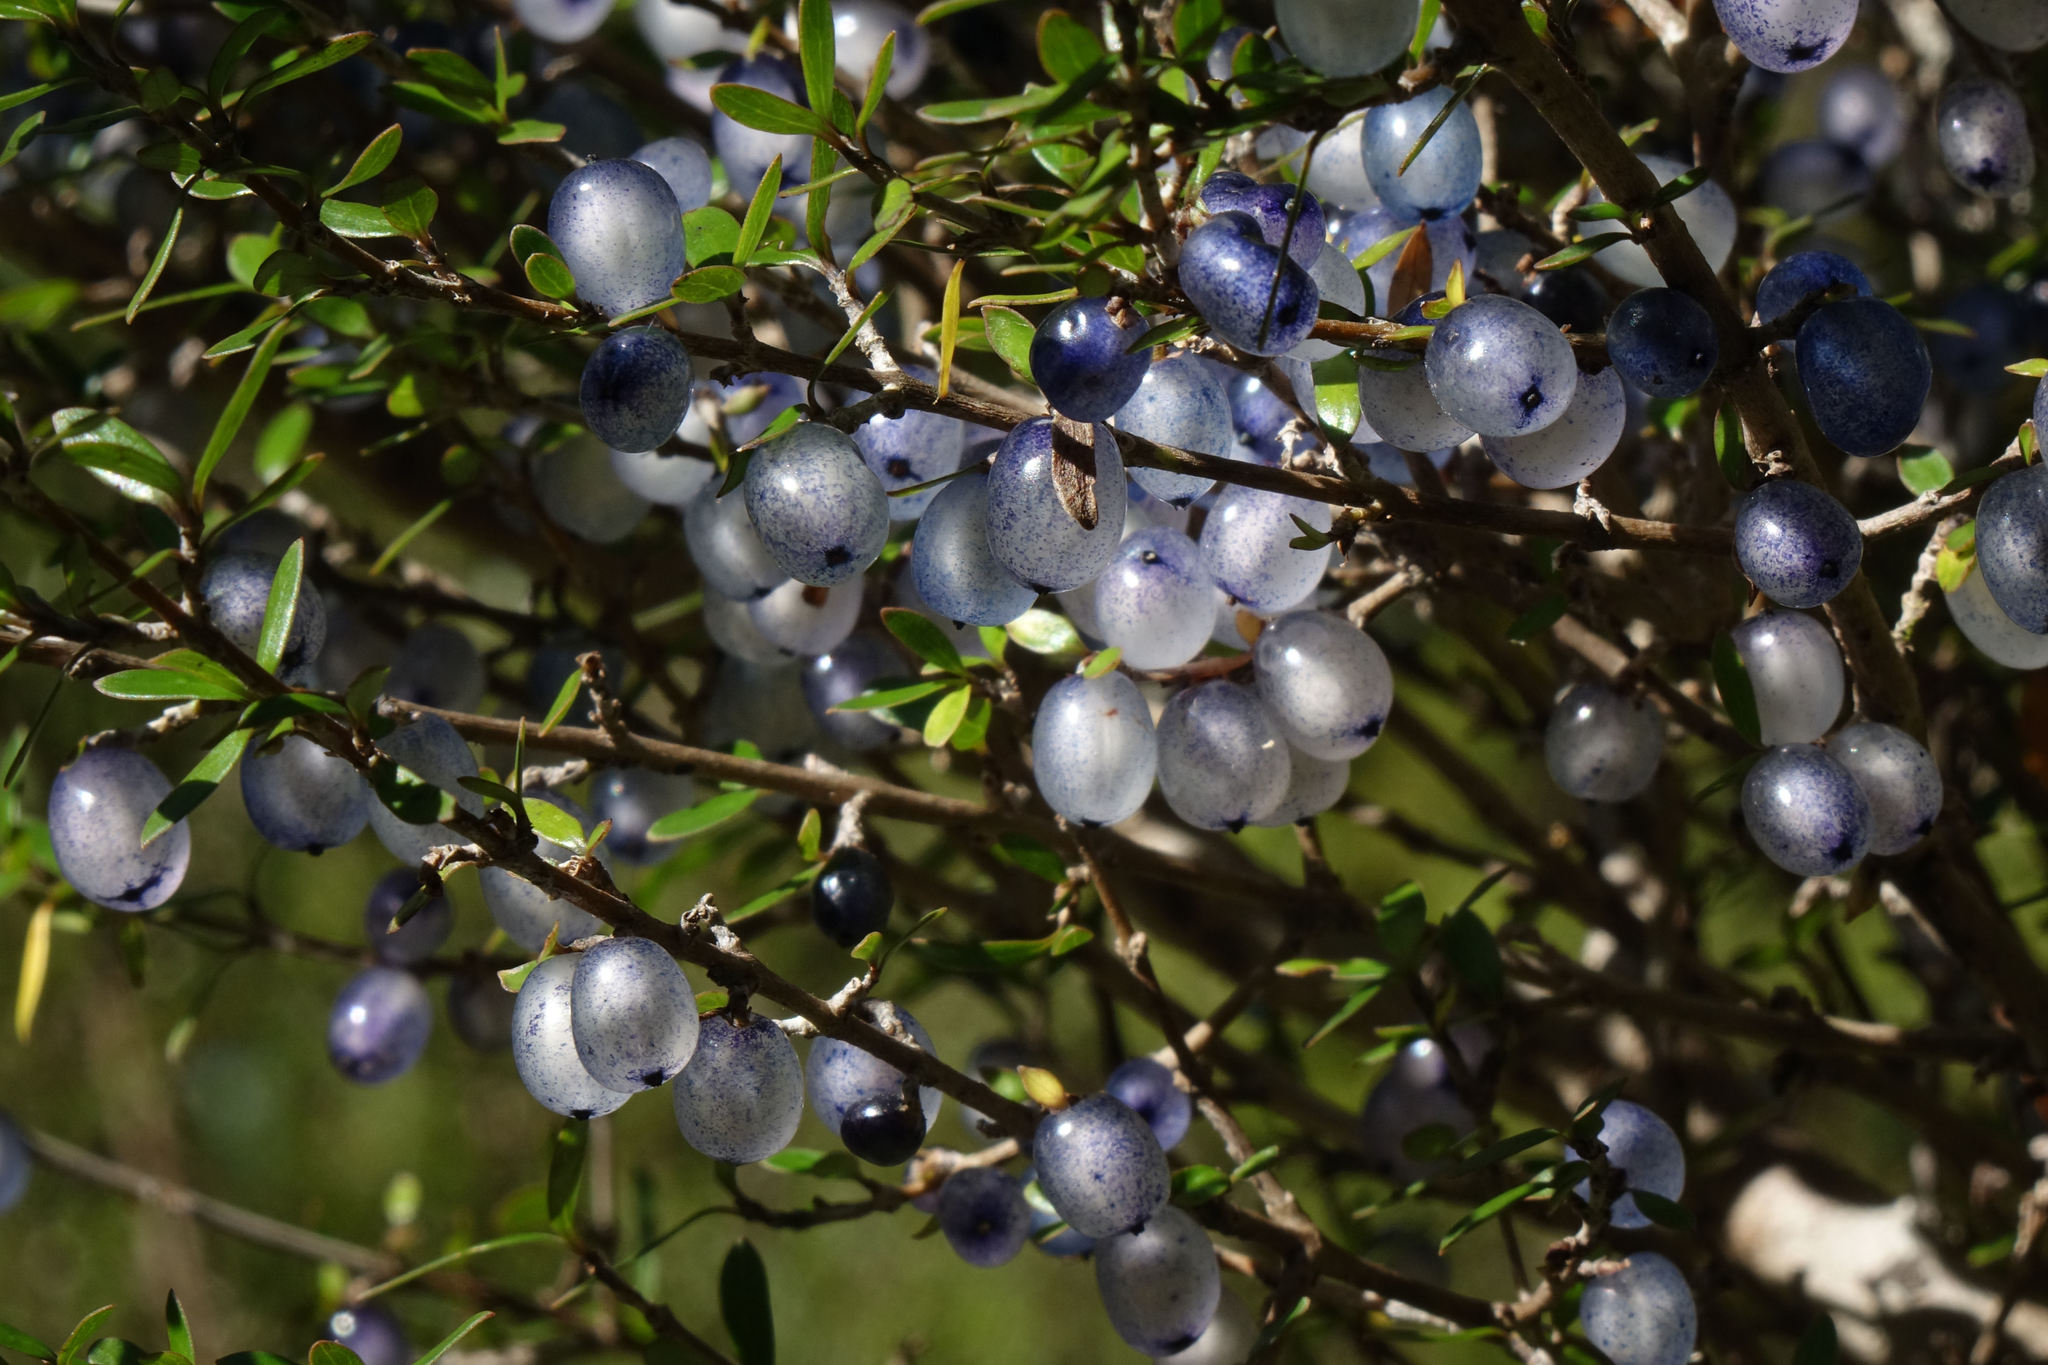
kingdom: Plantae
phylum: Tracheophyta
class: Magnoliopsida
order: Gentianales
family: Rubiaceae
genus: Coprosma
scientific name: Coprosma propinqua
